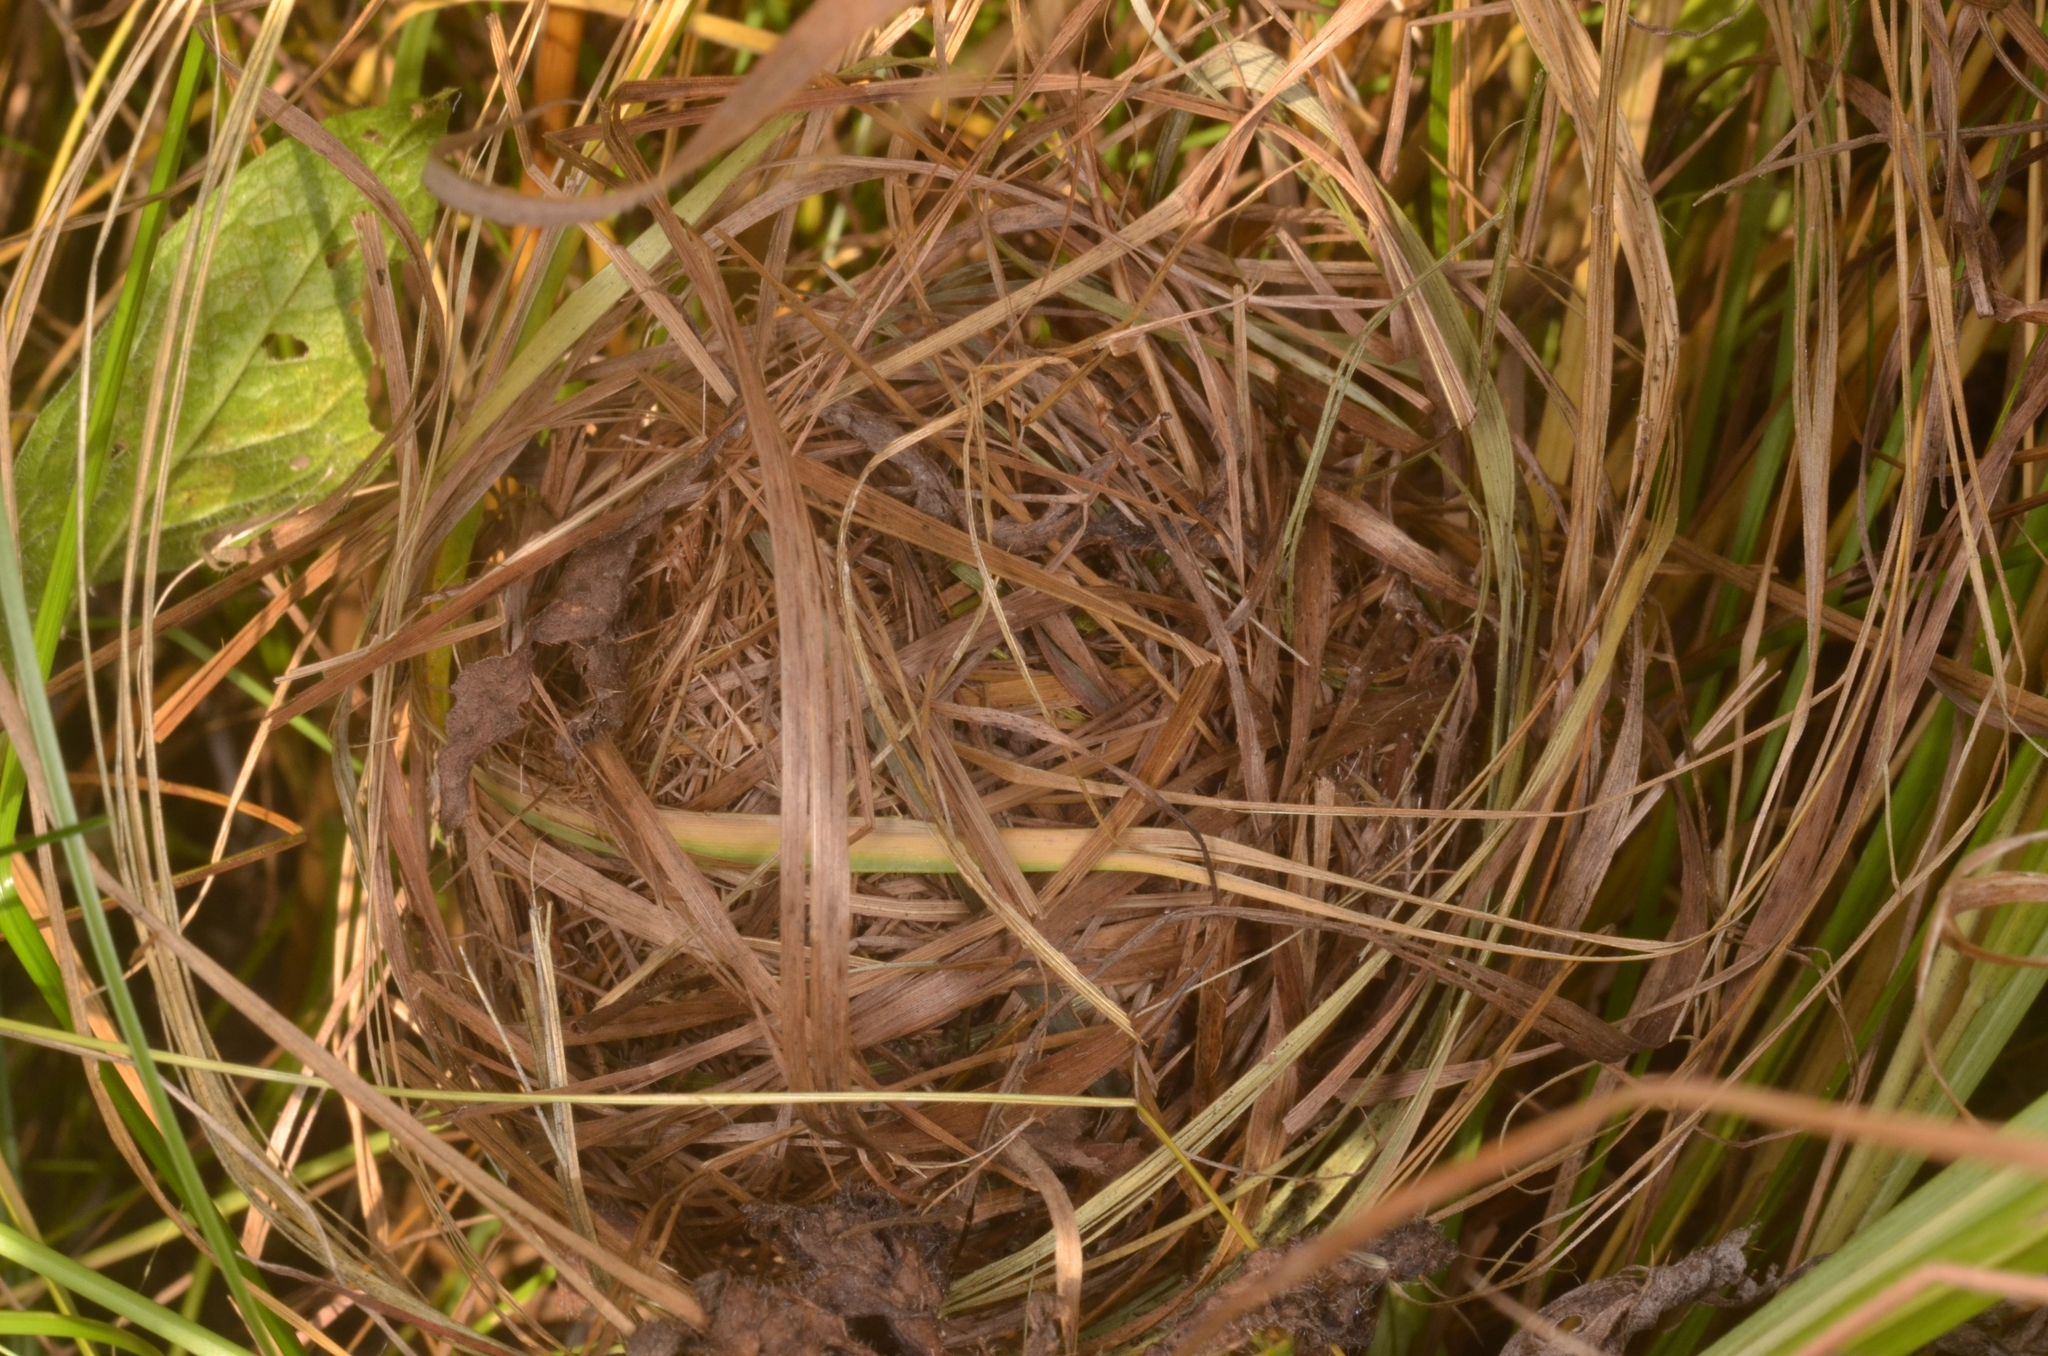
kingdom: Animalia
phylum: Chordata
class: Mammalia
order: Rodentia
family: Muridae
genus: Micromys
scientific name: Micromys minutus
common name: Harvest mouse
